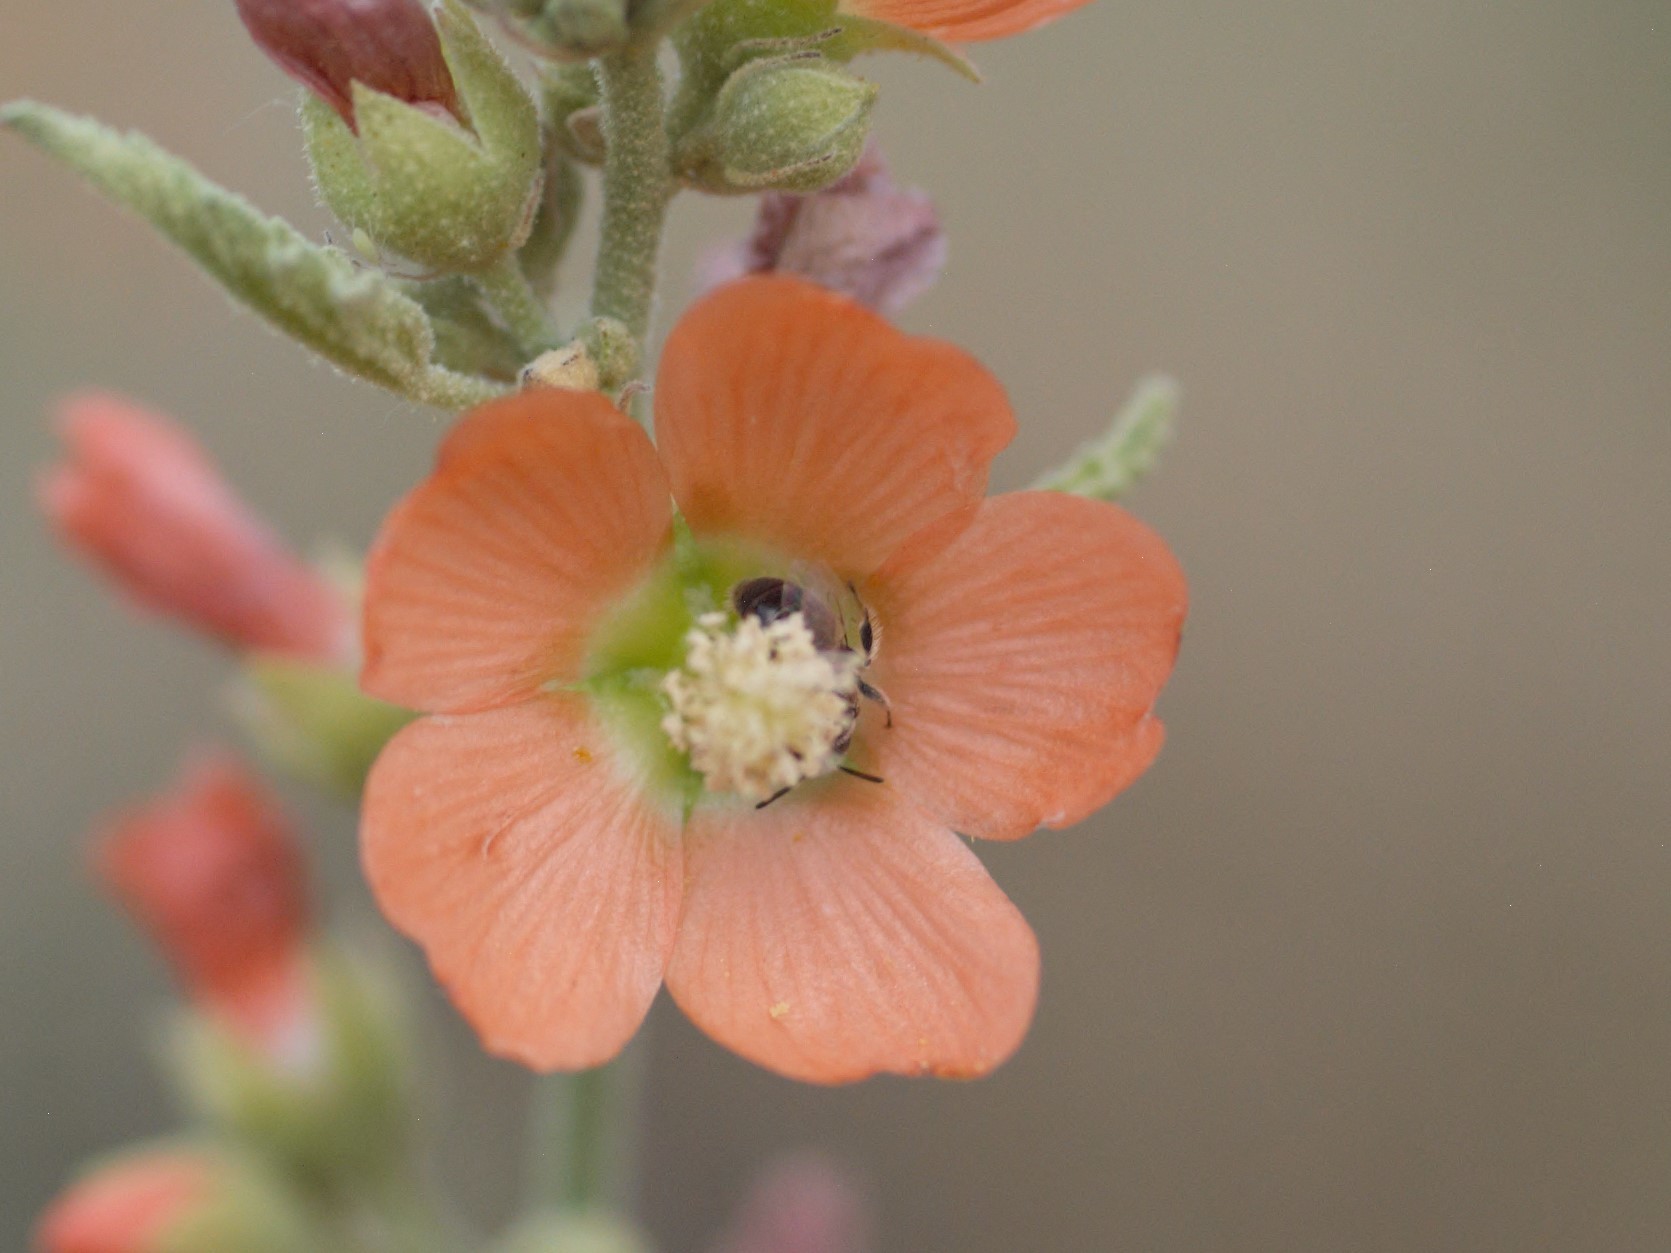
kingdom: Animalia
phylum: Arthropoda
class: Insecta
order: Hymenoptera
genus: Macroteropsis
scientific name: Macroteropsis
